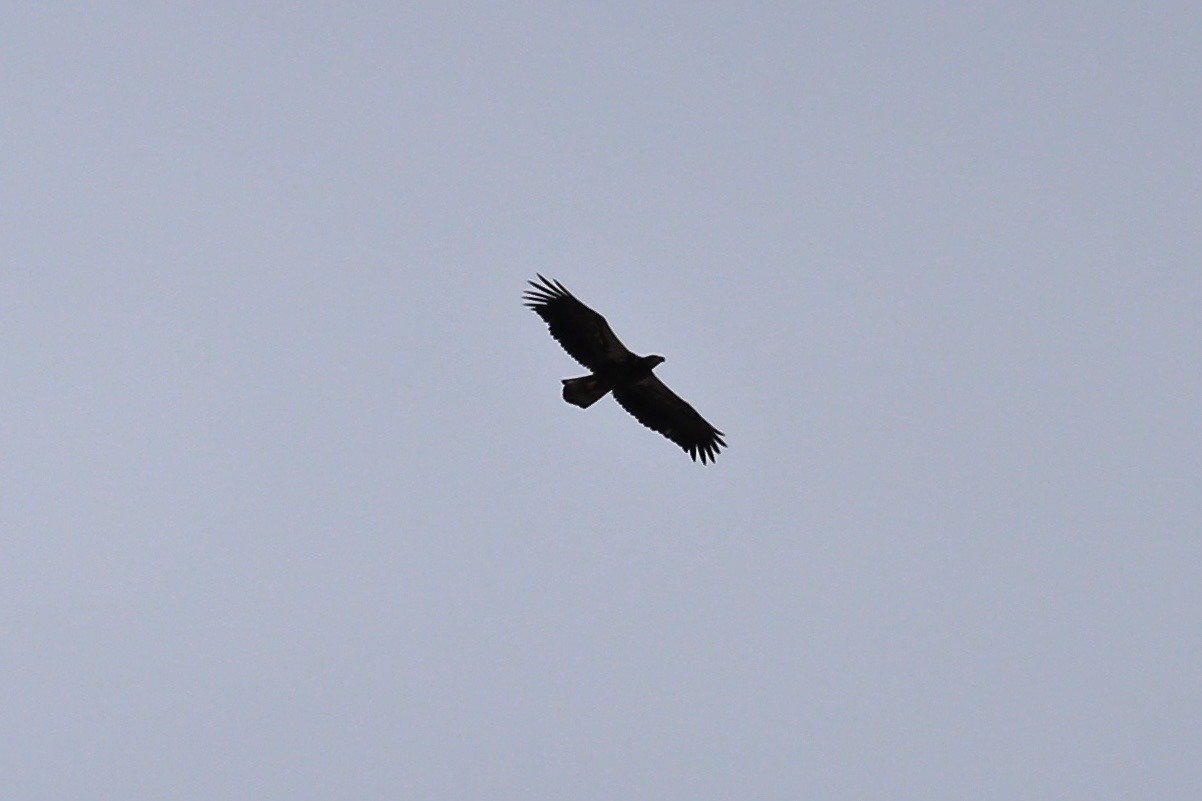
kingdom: Animalia
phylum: Chordata
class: Aves
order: Accipitriformes
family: Accipitridae
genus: Haliaeetus
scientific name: Haliaeetus leucocephalus
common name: Bald eagle
